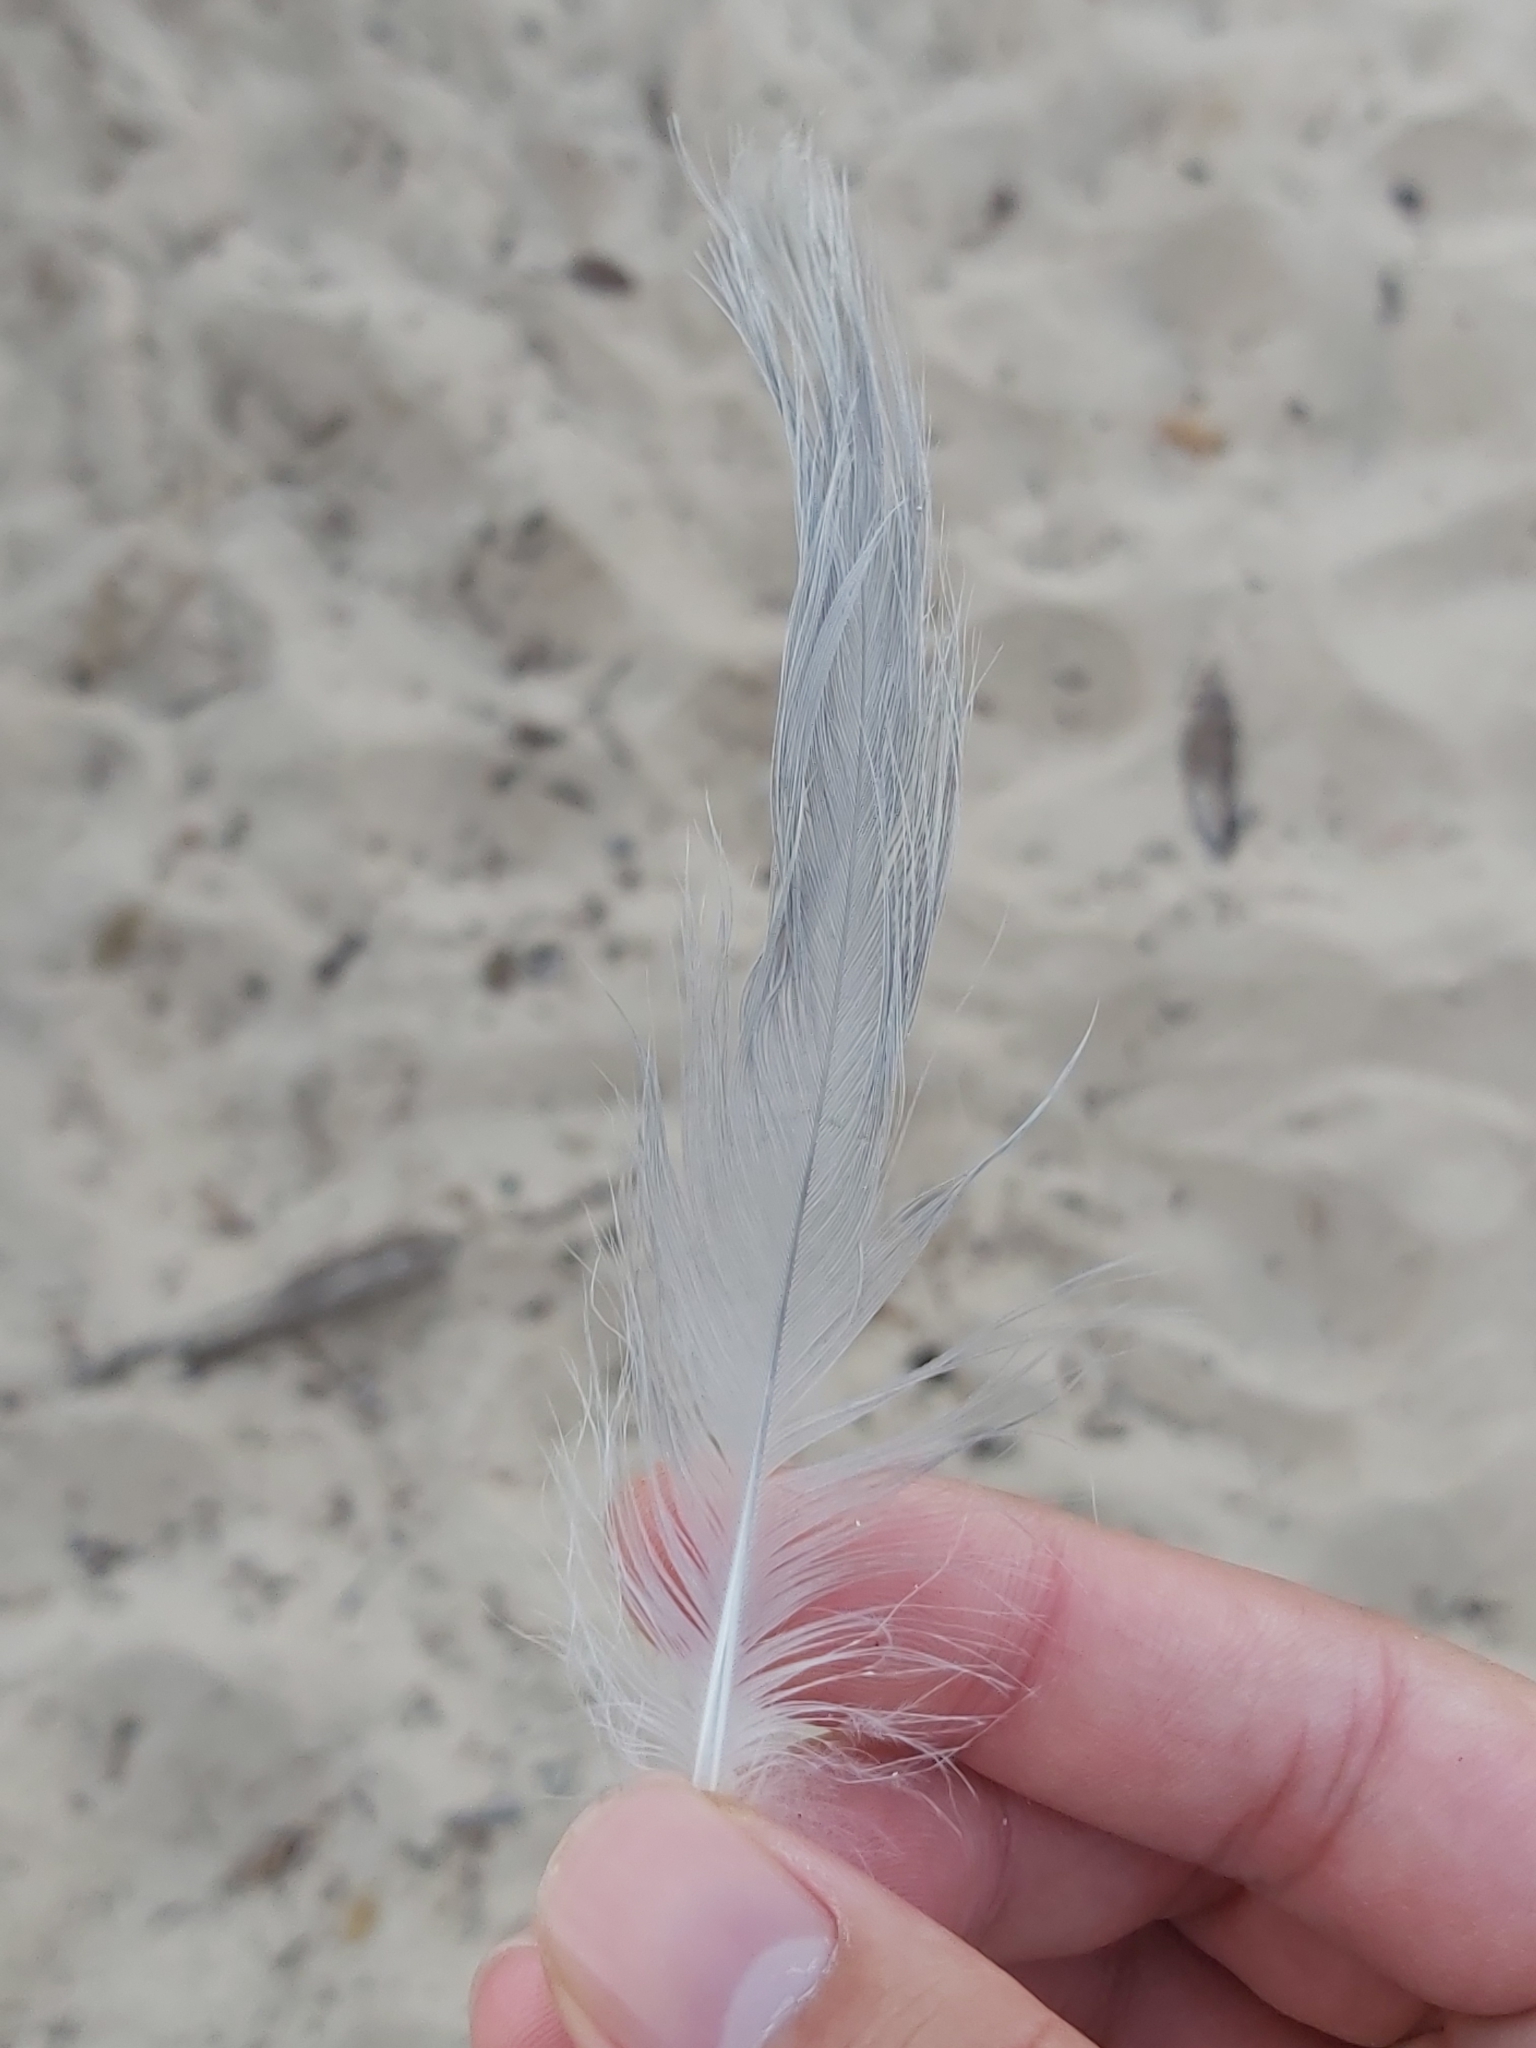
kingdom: Animalia
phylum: Chordata
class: Aves
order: Charadriiformes
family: Laridae
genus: Chroicocephalus
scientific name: Chroicocephalus novaehollandiae
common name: Silver gull
